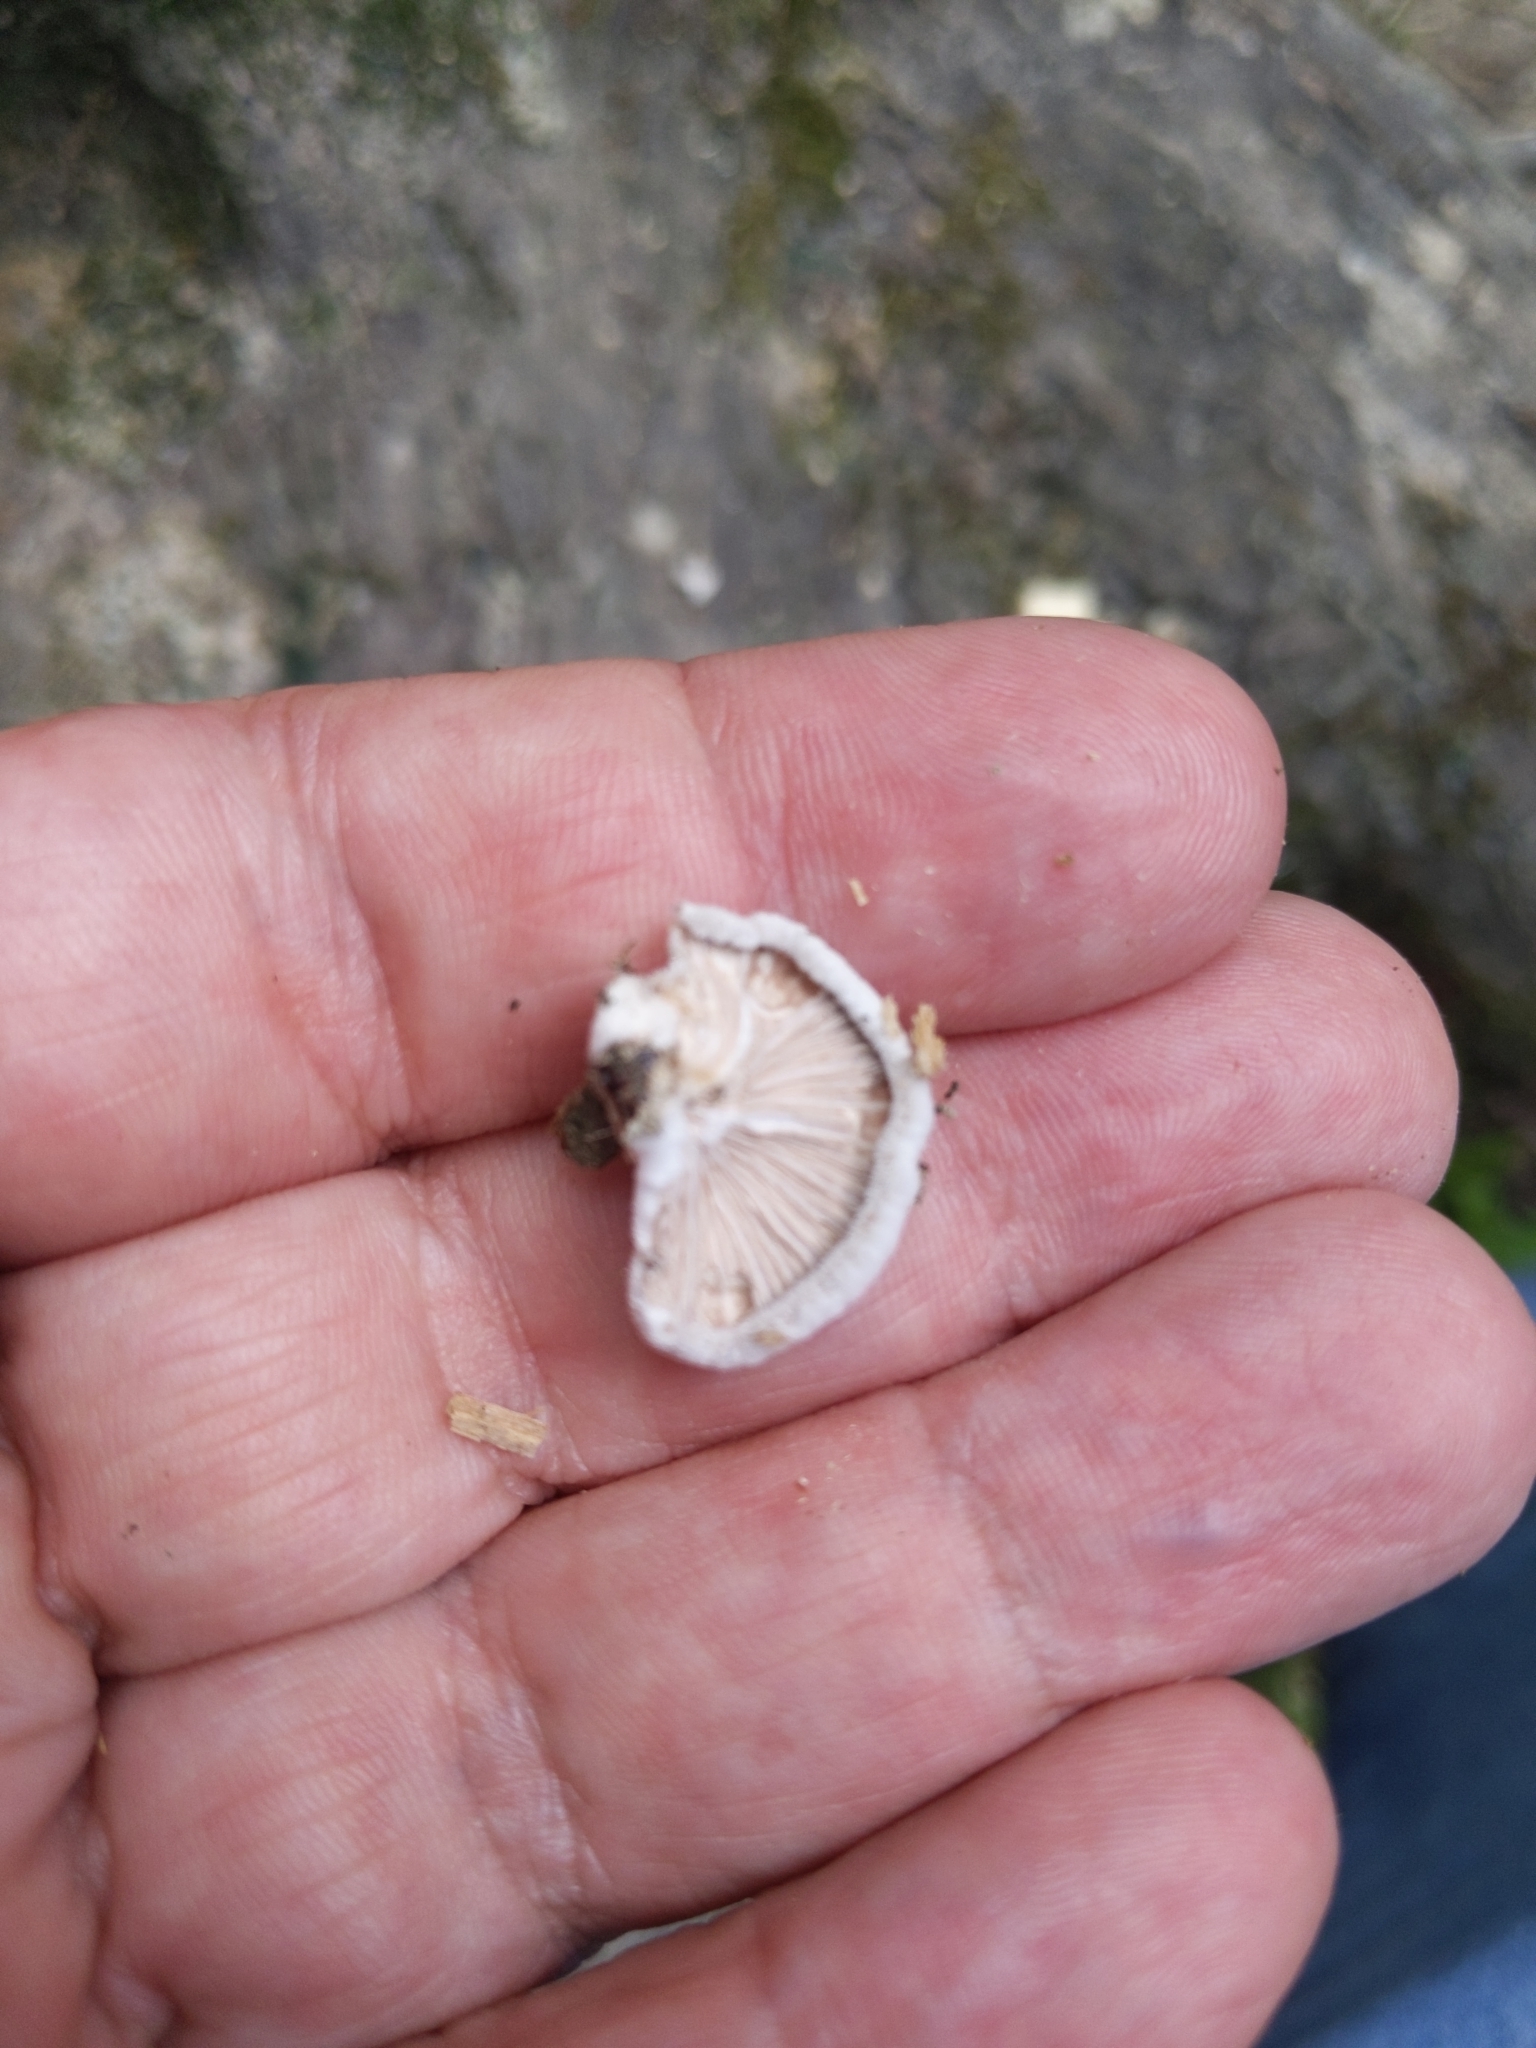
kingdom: Fungi
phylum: Basidiomycota
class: Agaricomycetes
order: Agaricales
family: Schizophyllaceae
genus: Schizophyllum
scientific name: Schizophyllum commune
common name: Common porecrust
